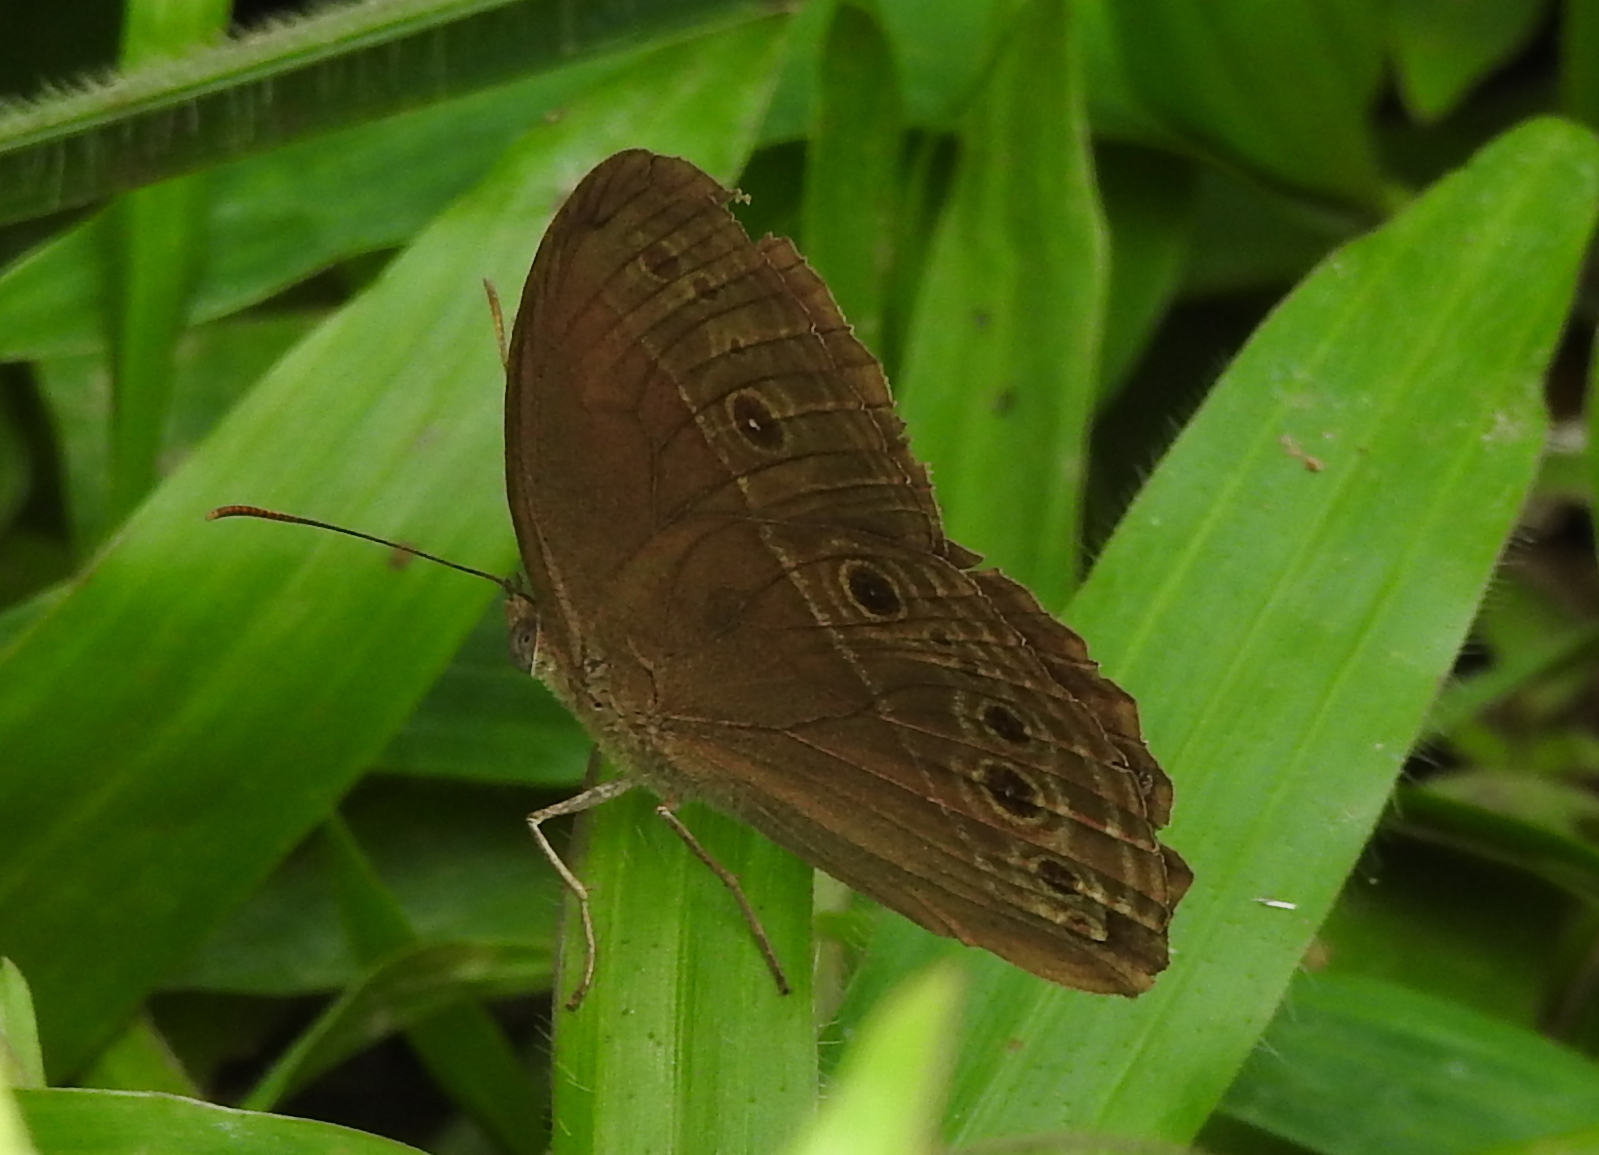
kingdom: Animalia
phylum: Arthropoda
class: Insecta
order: Lepidoptera
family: Nymphalidae
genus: Mycalesis
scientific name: Mycalesis perseus
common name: Dingy bushbrown
